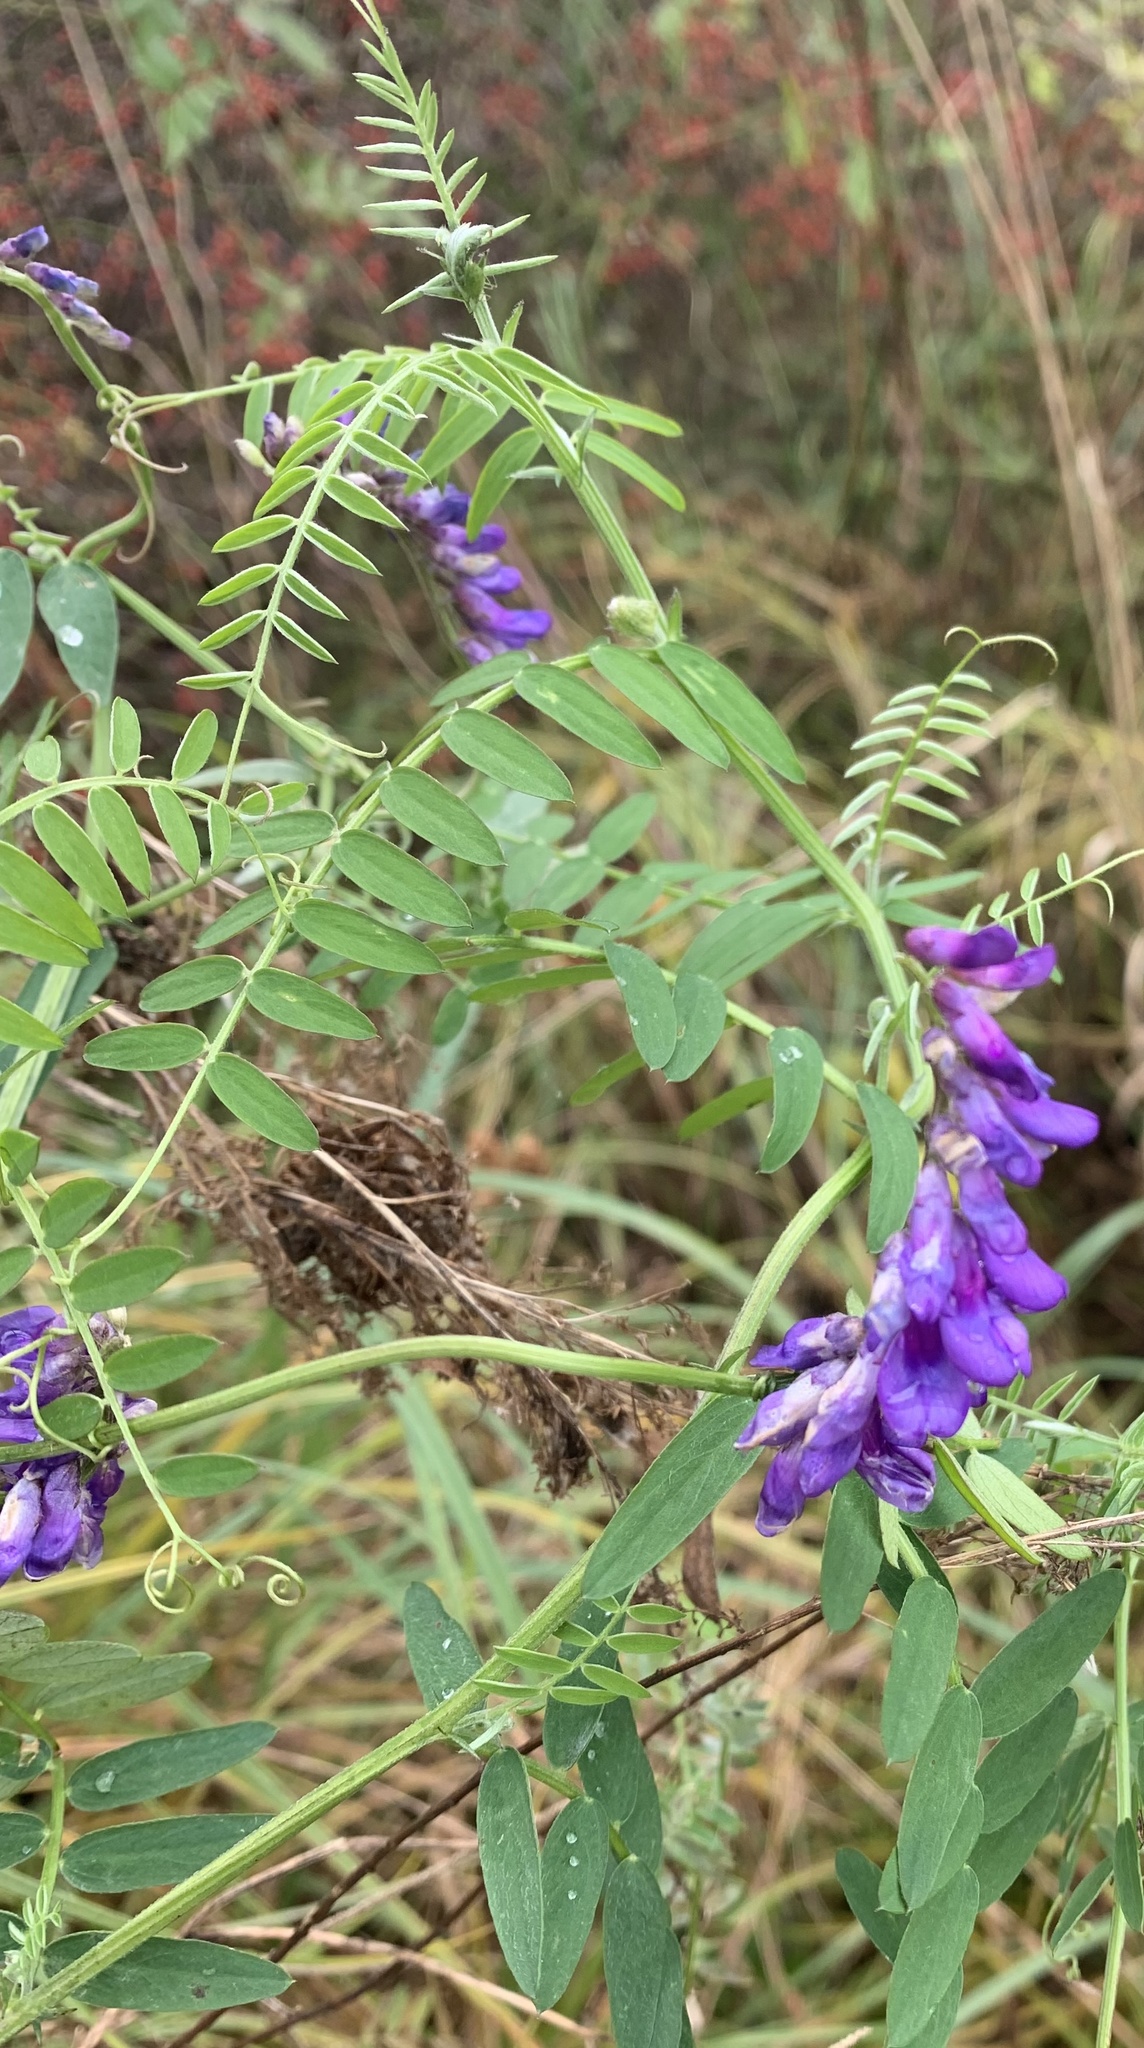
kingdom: Plantae
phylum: Tracheophyta
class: Magnoliopsida
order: Fabales
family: Fabaceae
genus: Vicia
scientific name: Vicia cracca
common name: Bird vetch
